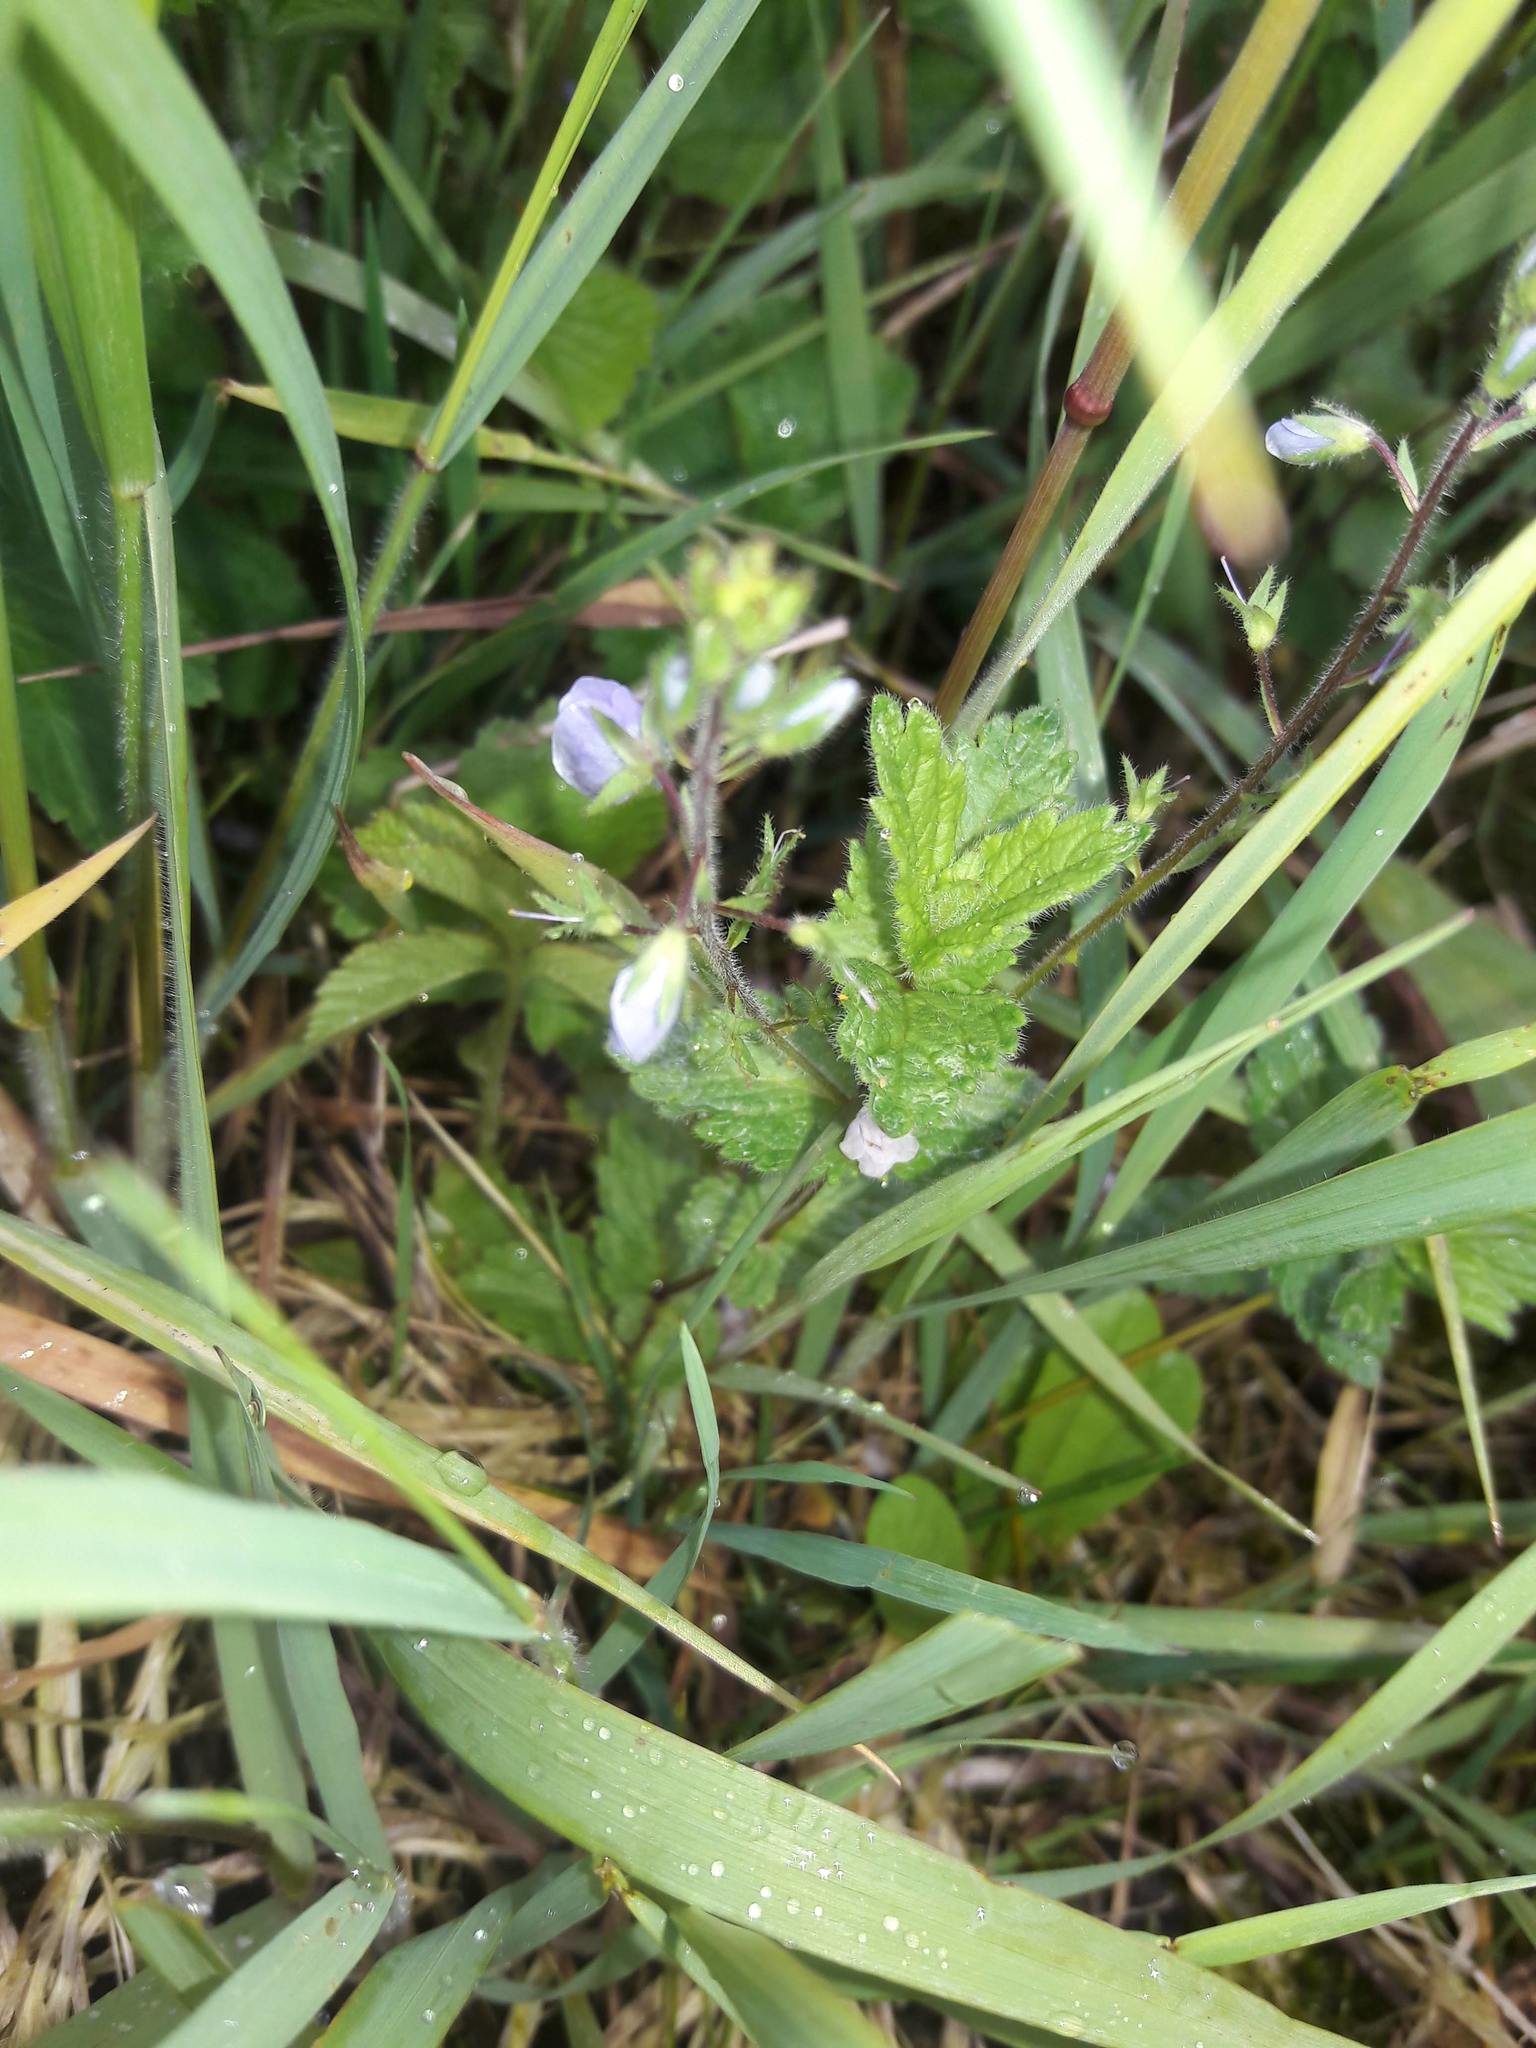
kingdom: Plantae
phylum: Tracheophyta
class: Magnoliopsida
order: Lamiales
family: Plantaginaceae
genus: Veronica
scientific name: Veronica chamaedrys
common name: Germander speedwell
